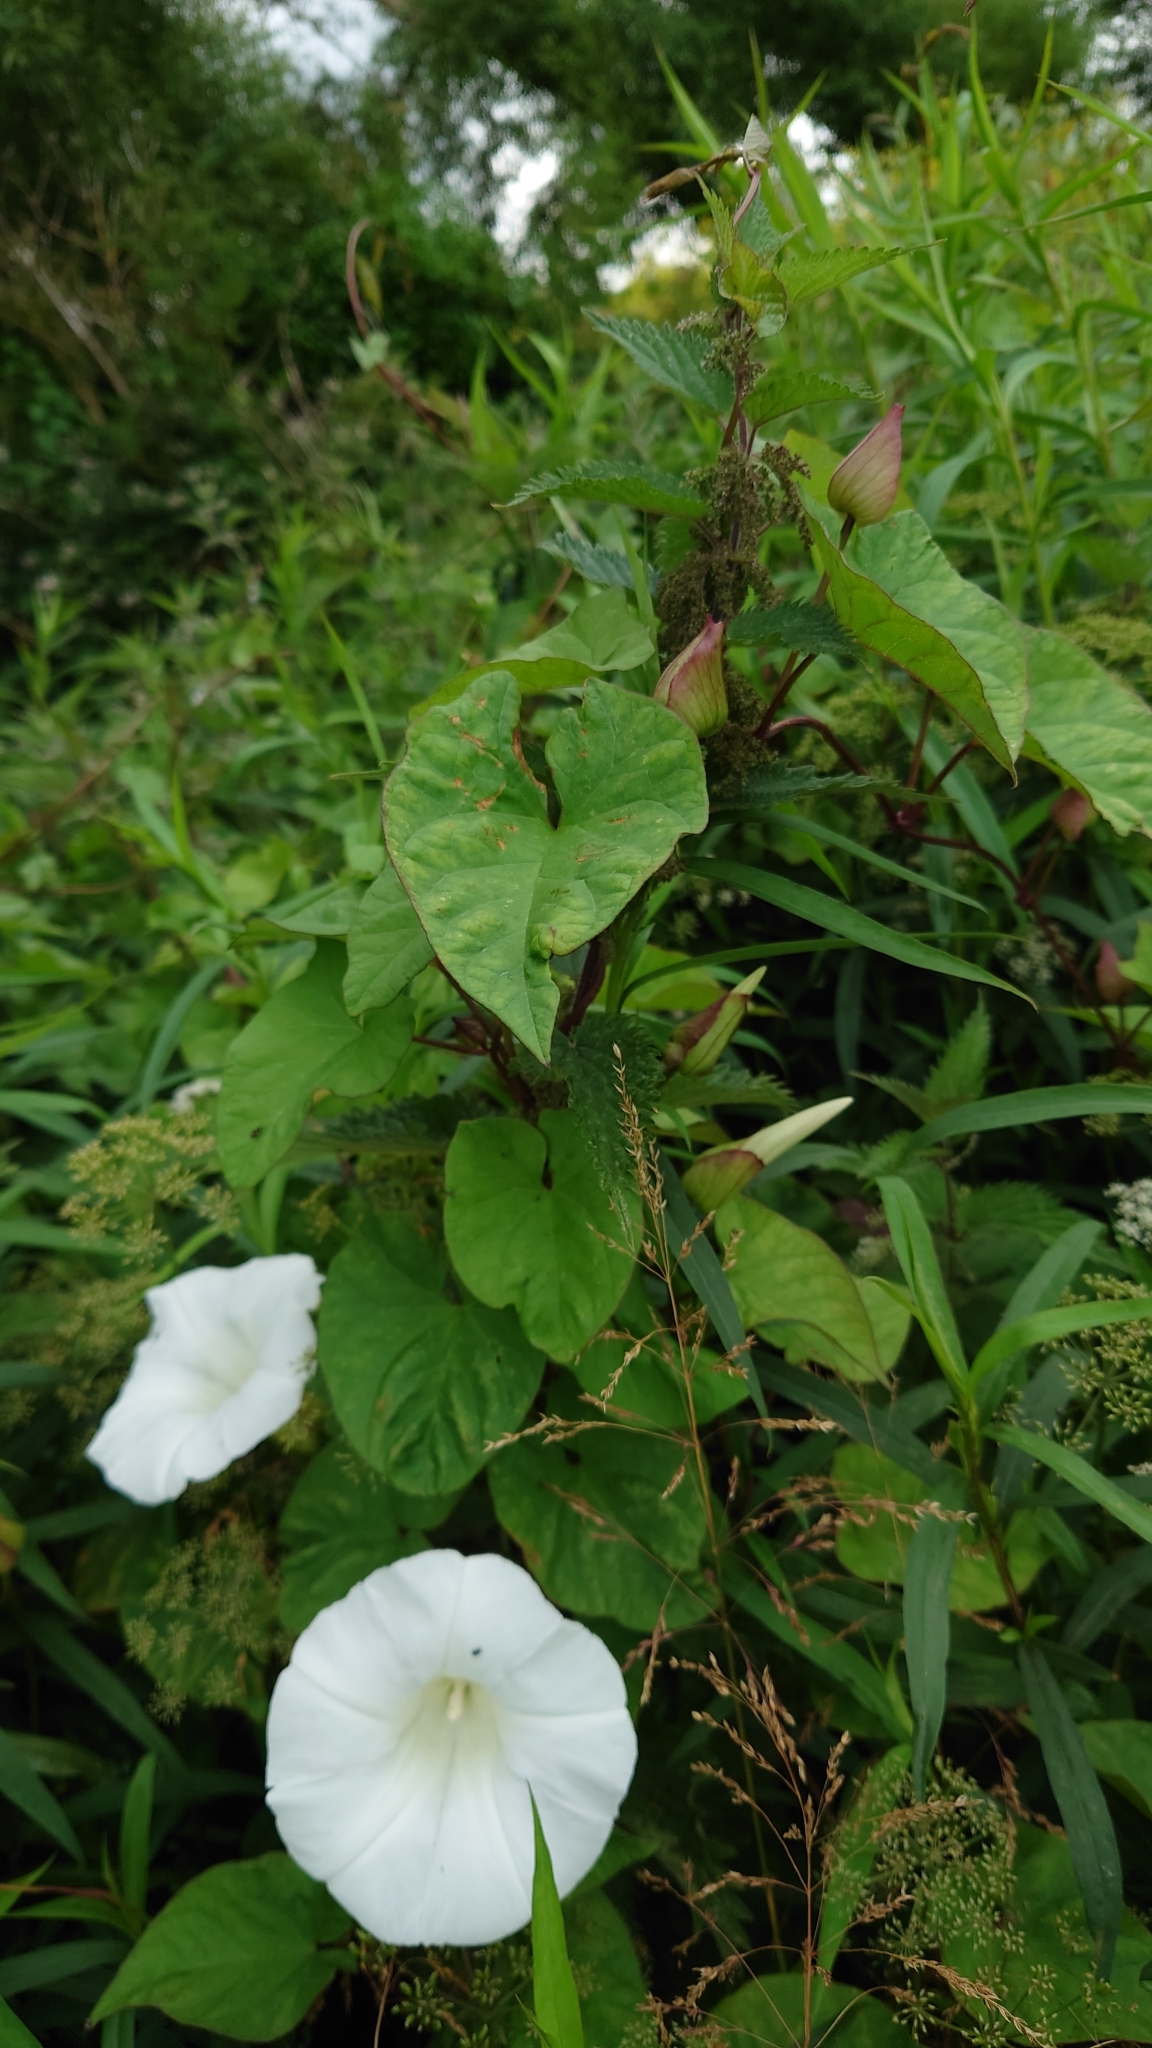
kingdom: Plantae
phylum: Tracheophyta
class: Magnoliopsida
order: Solanales
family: Convolvulaceae
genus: Calystegia
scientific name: Calystegia silvatica
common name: Large bindweed
